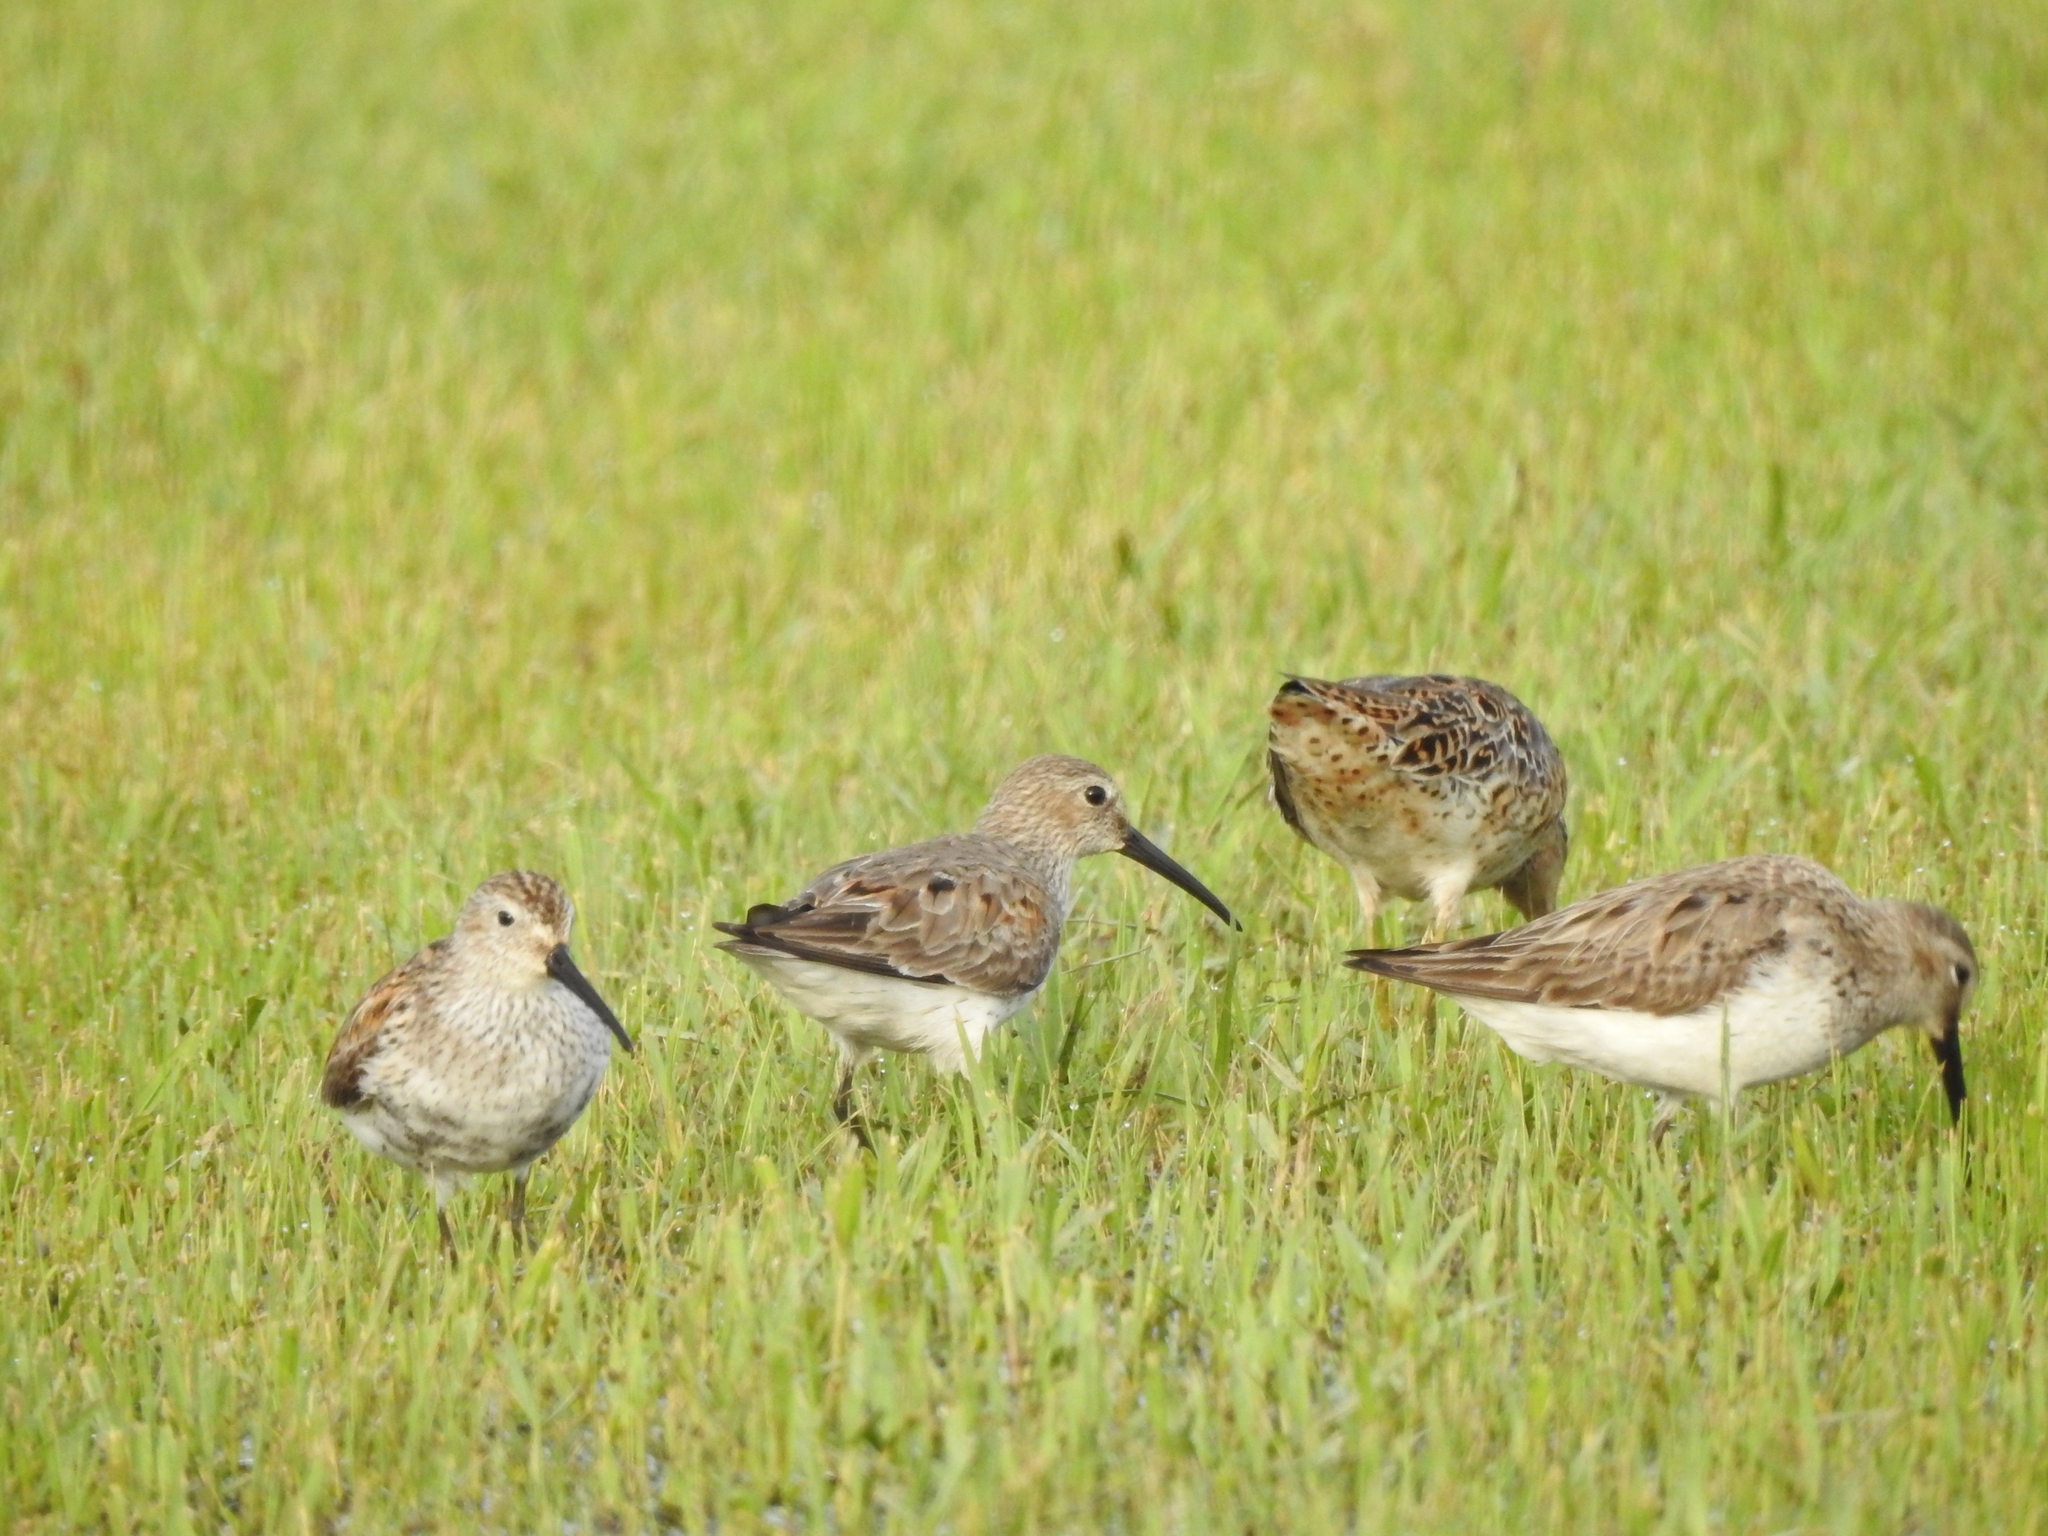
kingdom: Animalia
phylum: Chordata
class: Aves
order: Charadriiformes
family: Scolopacidae
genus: Calidris
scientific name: Calidris alpina
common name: Dunlin
